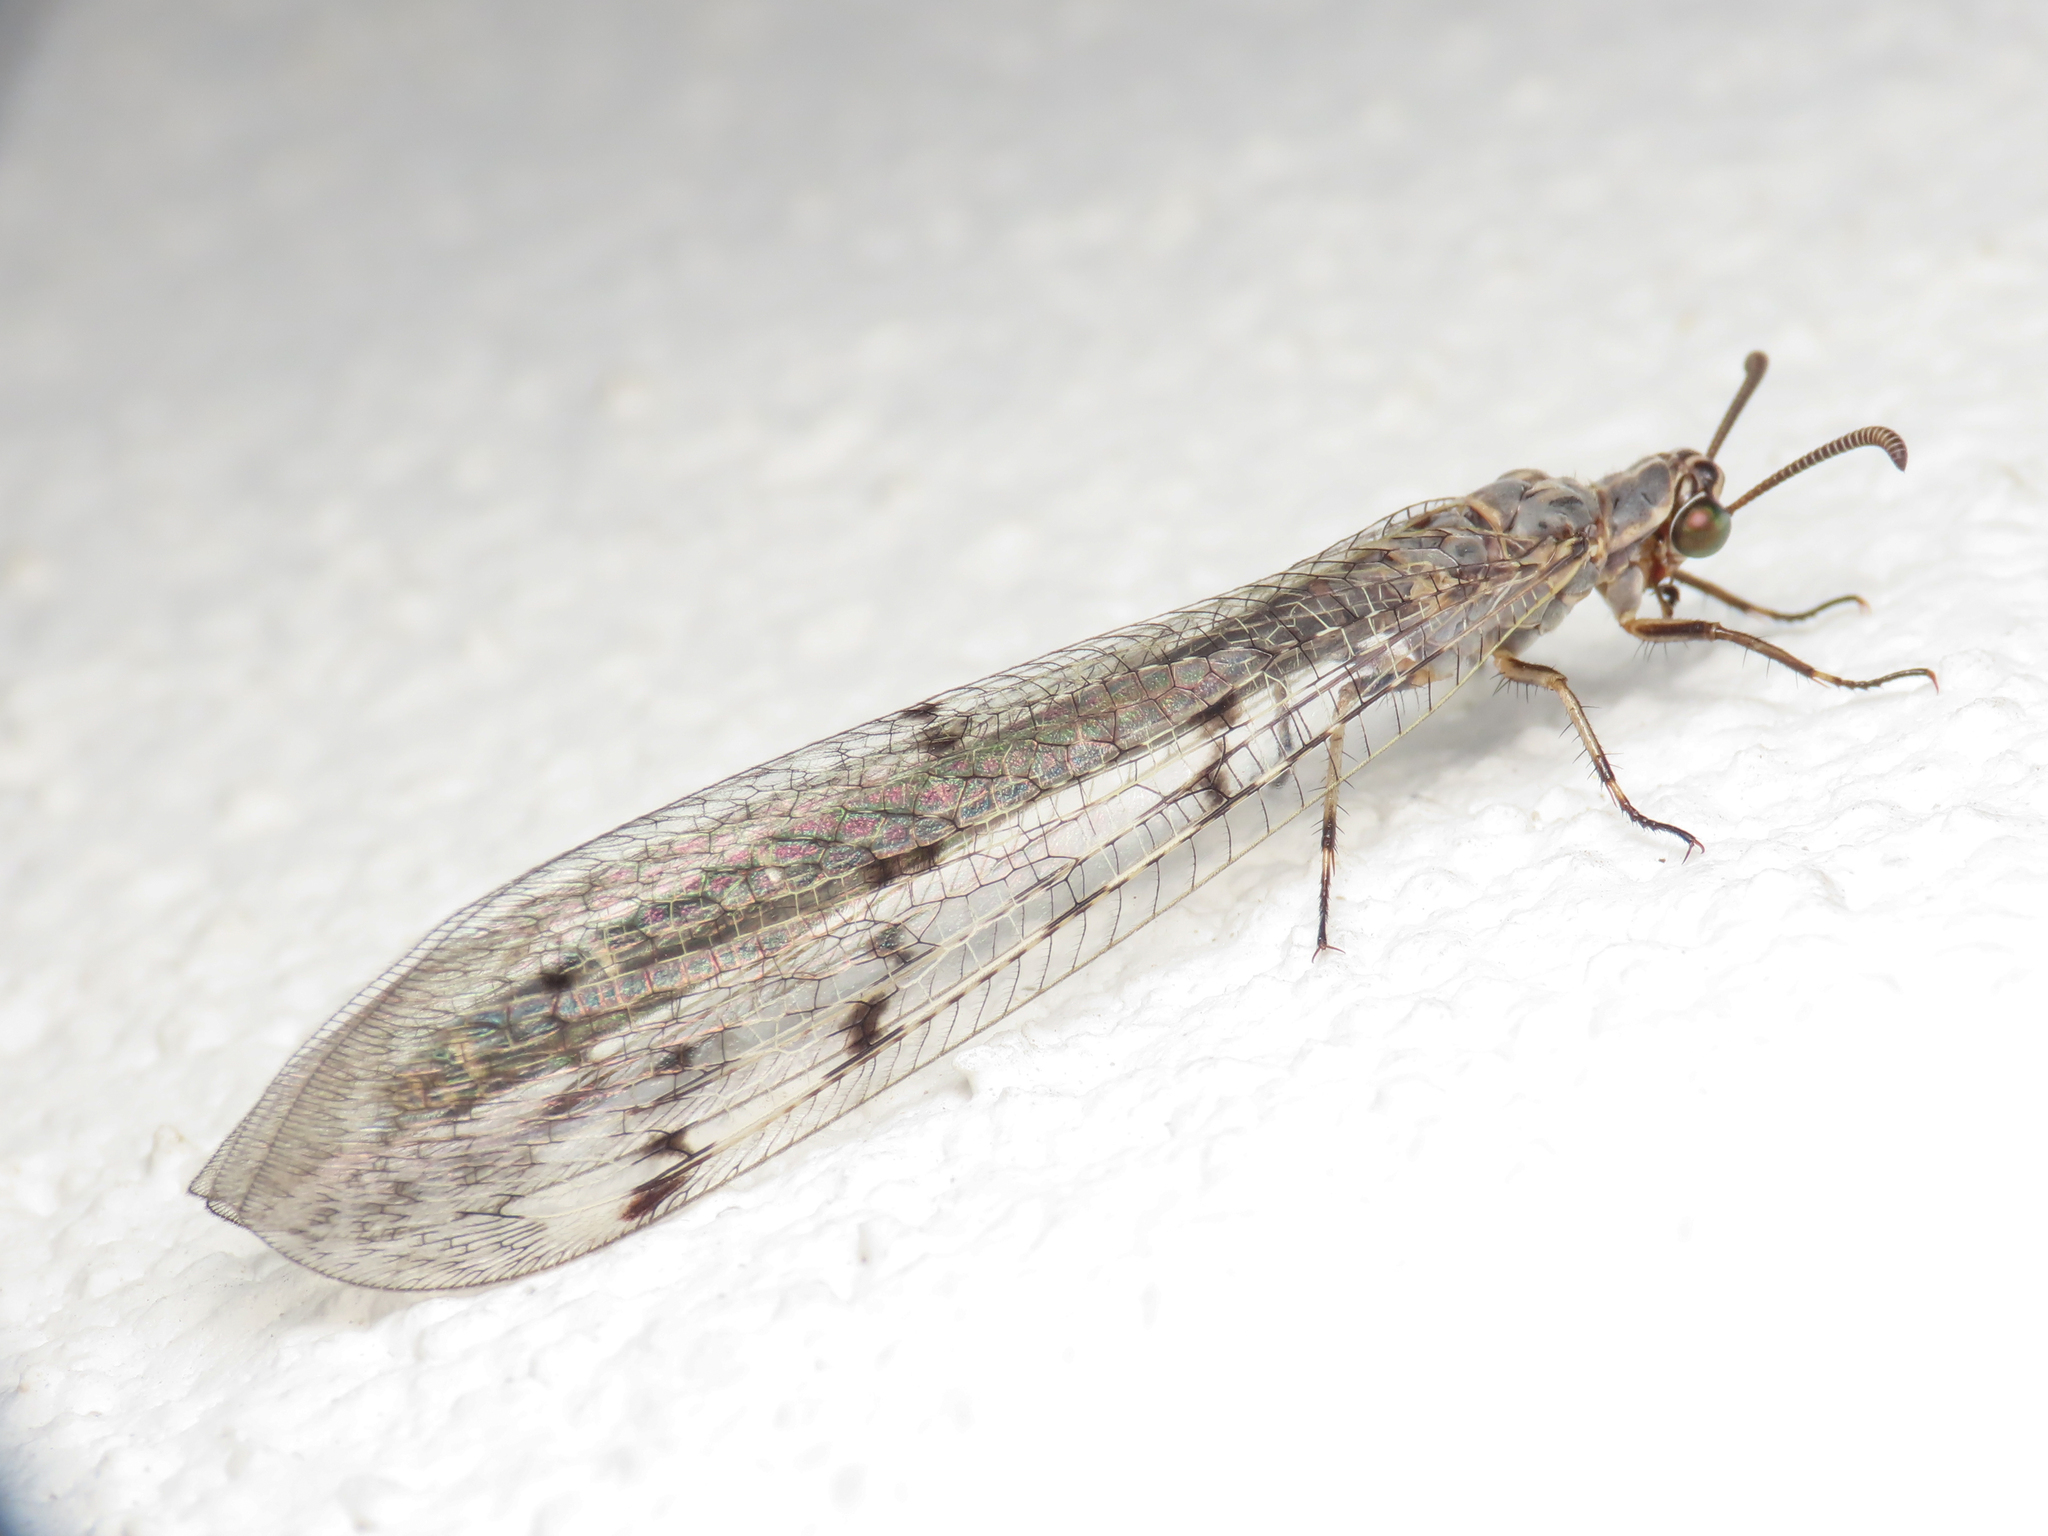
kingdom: Animalia
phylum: Arthropoda
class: Insecta
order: Neuroptera
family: Myrmeleontidae
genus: Euroleon
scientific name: Euroleon nostras
